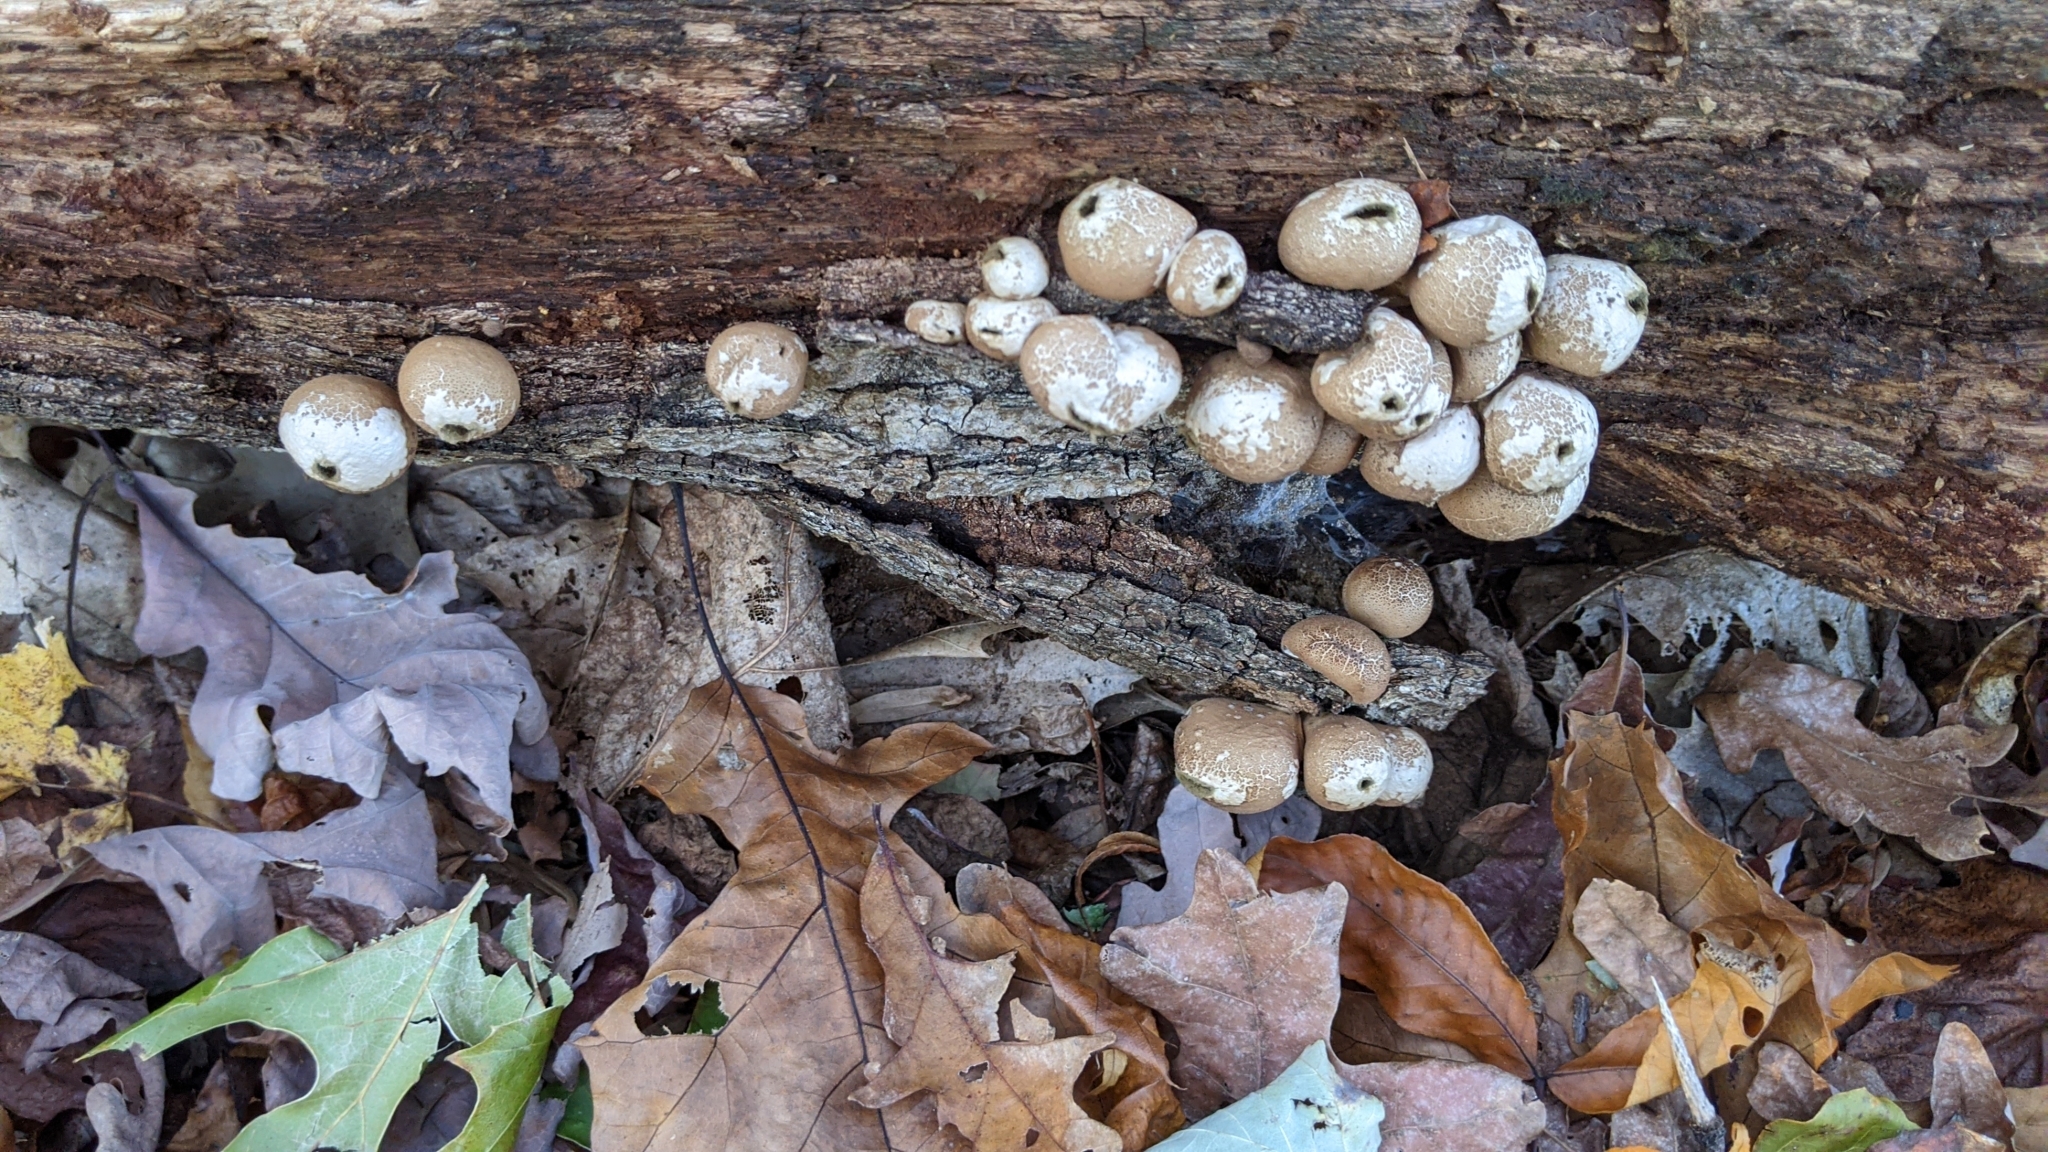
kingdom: Fungi
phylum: Basidiomycota
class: Agaricomycetes
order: Agaricales
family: Lycoperdaceae
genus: Apioperdon
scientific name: Apioperdon pyriforme
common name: Pear-shaped puffball
